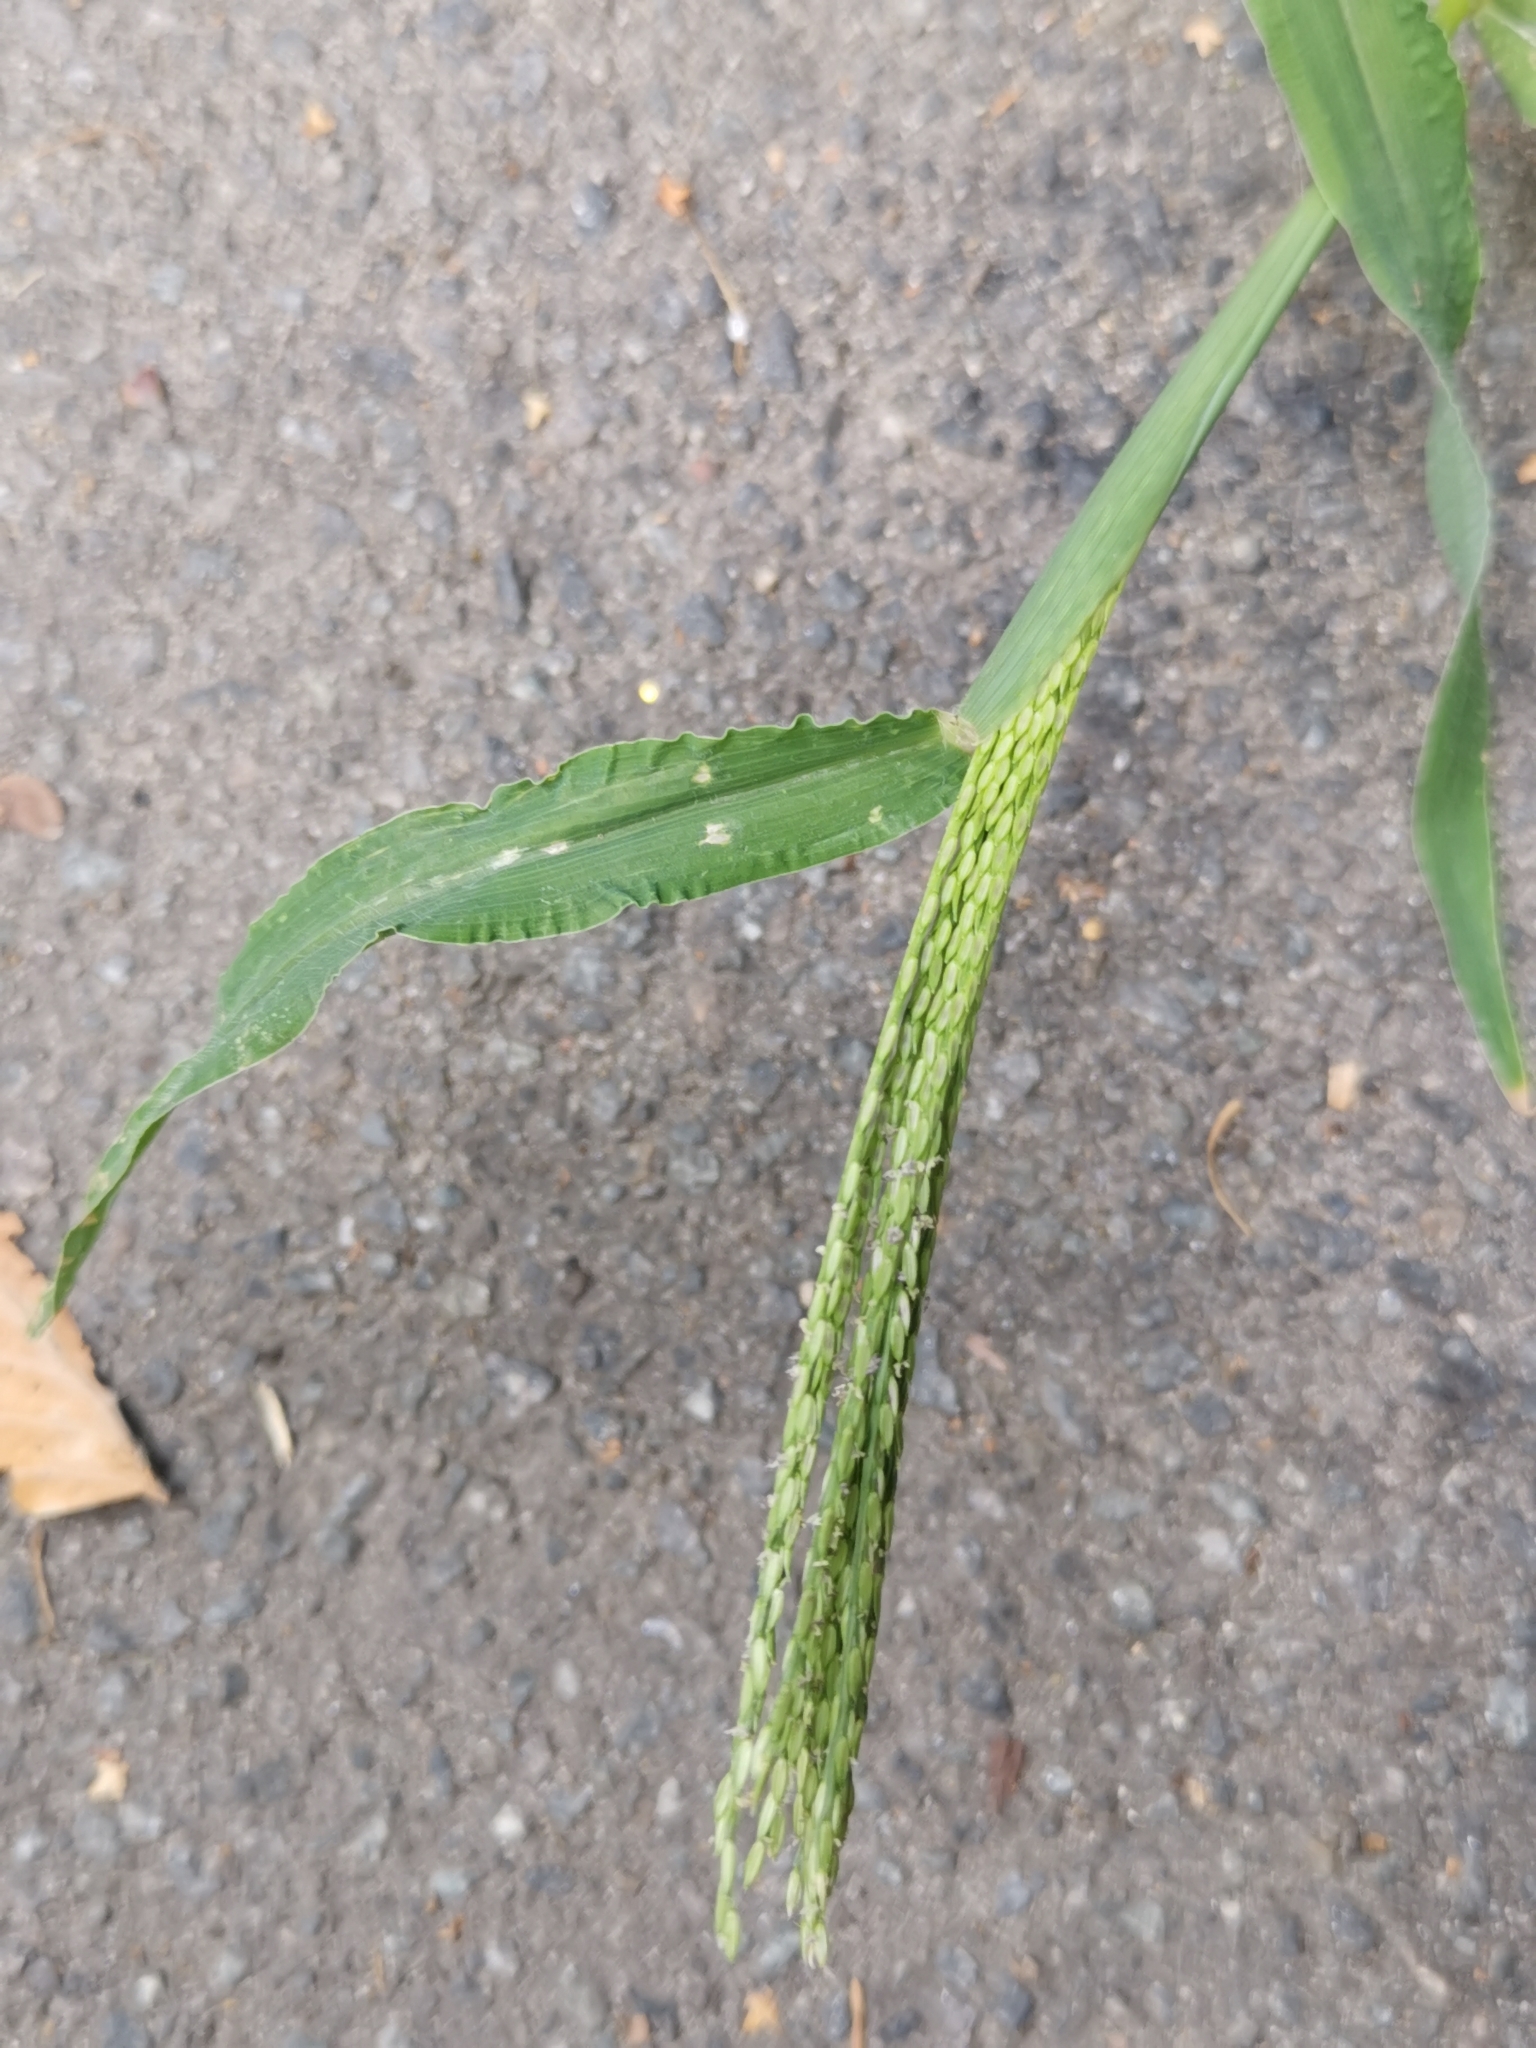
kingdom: Plantae
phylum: Tracheophyta
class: Liliopsida
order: Poales
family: Poaceae
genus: Digitaria
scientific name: Digitaria sanguinalis
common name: Hairy crabgrass
